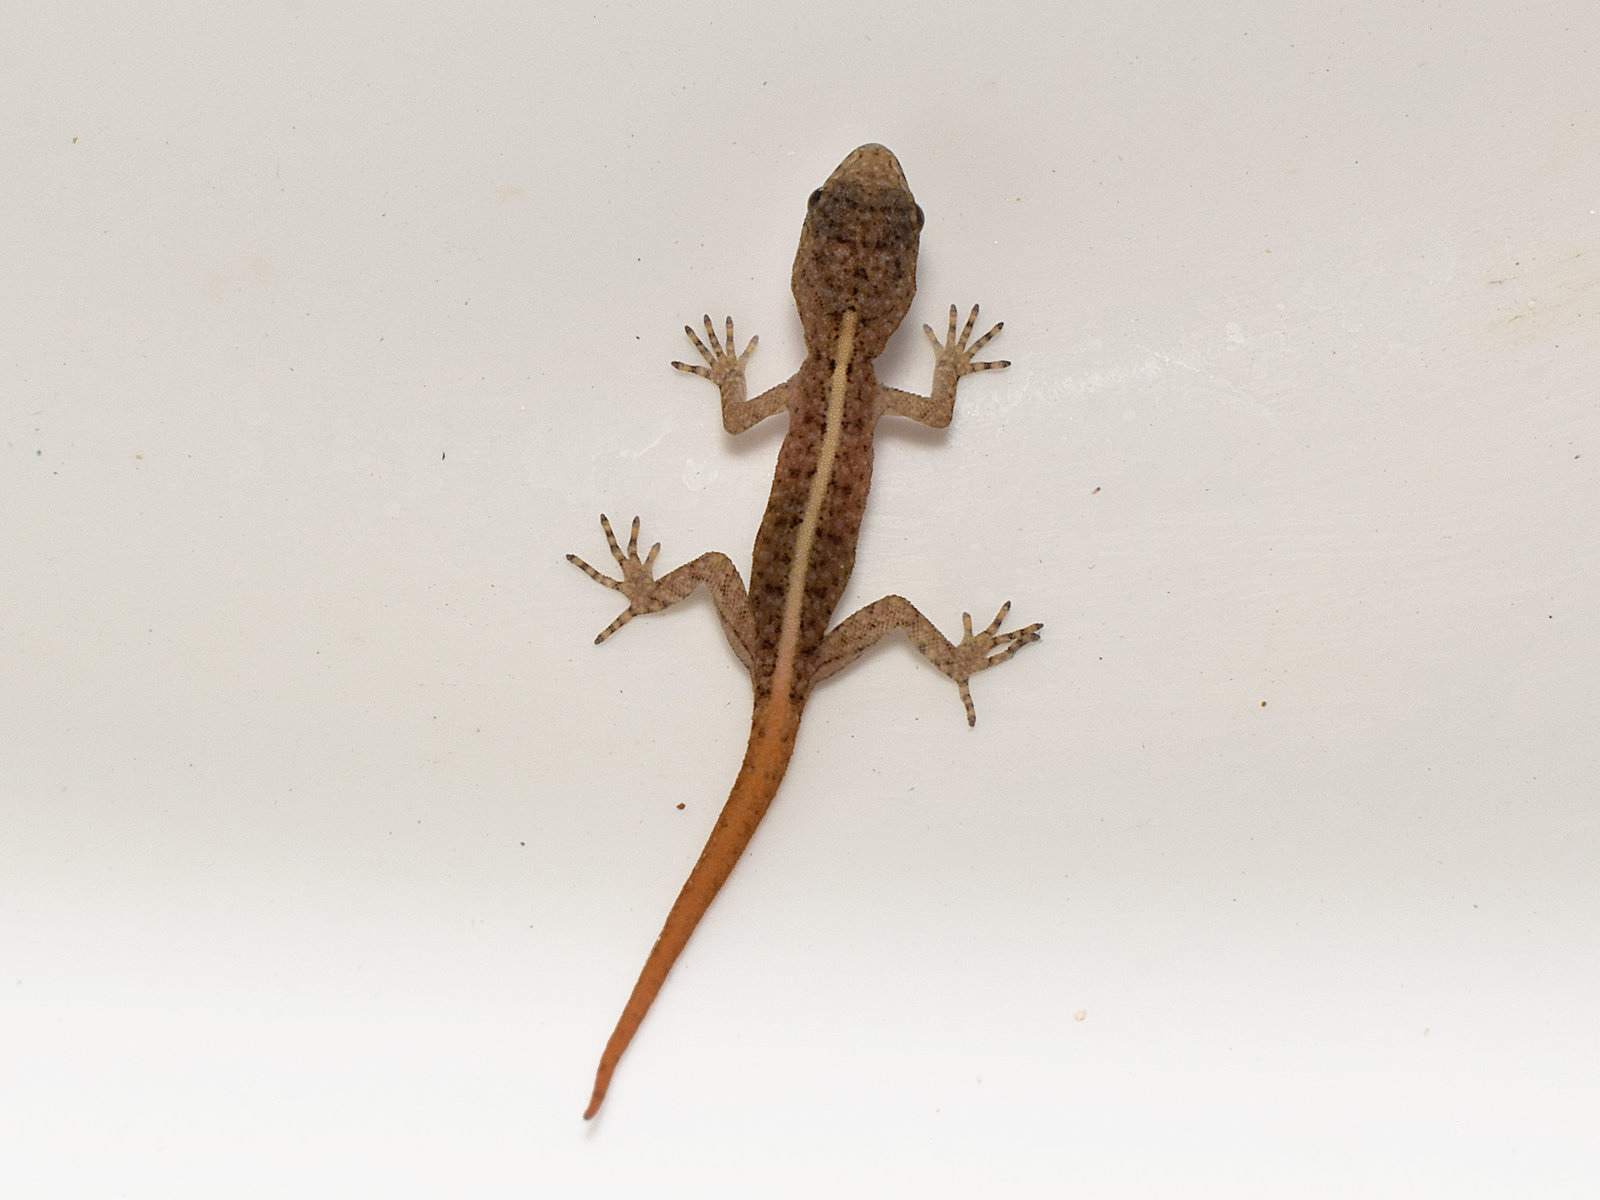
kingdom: Animalia
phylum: Chordata
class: Squamata
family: Gekkonidae
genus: Cnemaspis
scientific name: Cnemaspis yercaudensis
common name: Yercaud day gecko
